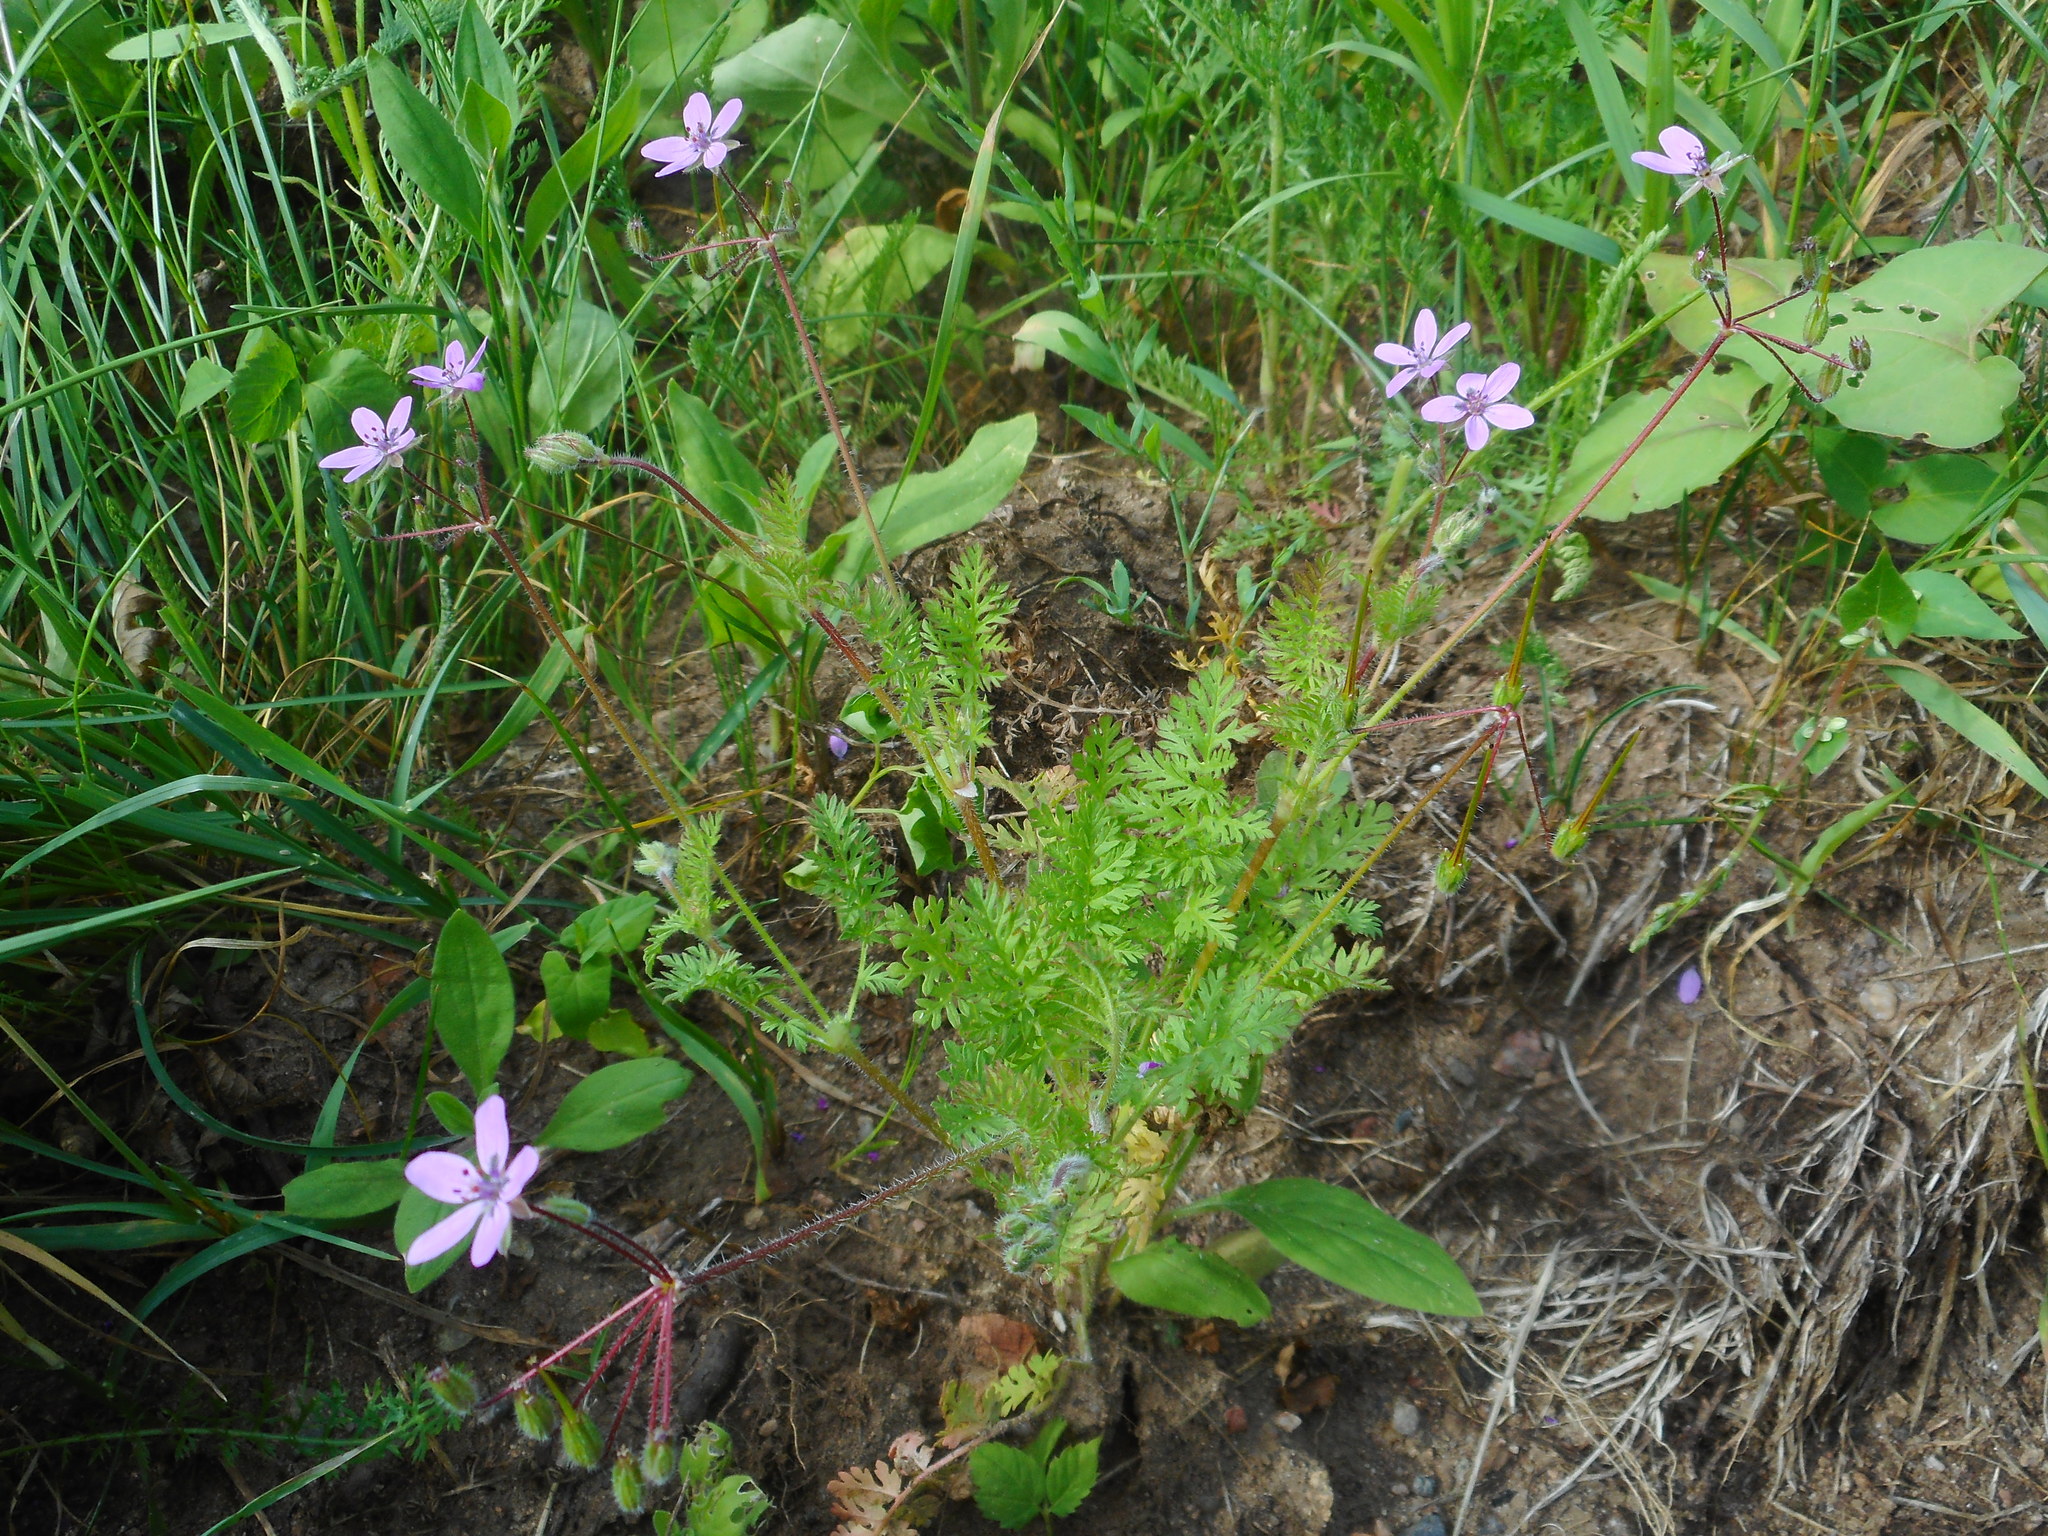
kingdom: Plantae
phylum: Tracheophyta
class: Magnoliopsida
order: Geraniales
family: Geraniaceae
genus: Erodium
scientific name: Erodium cicutarium
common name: Common stork's-bill
